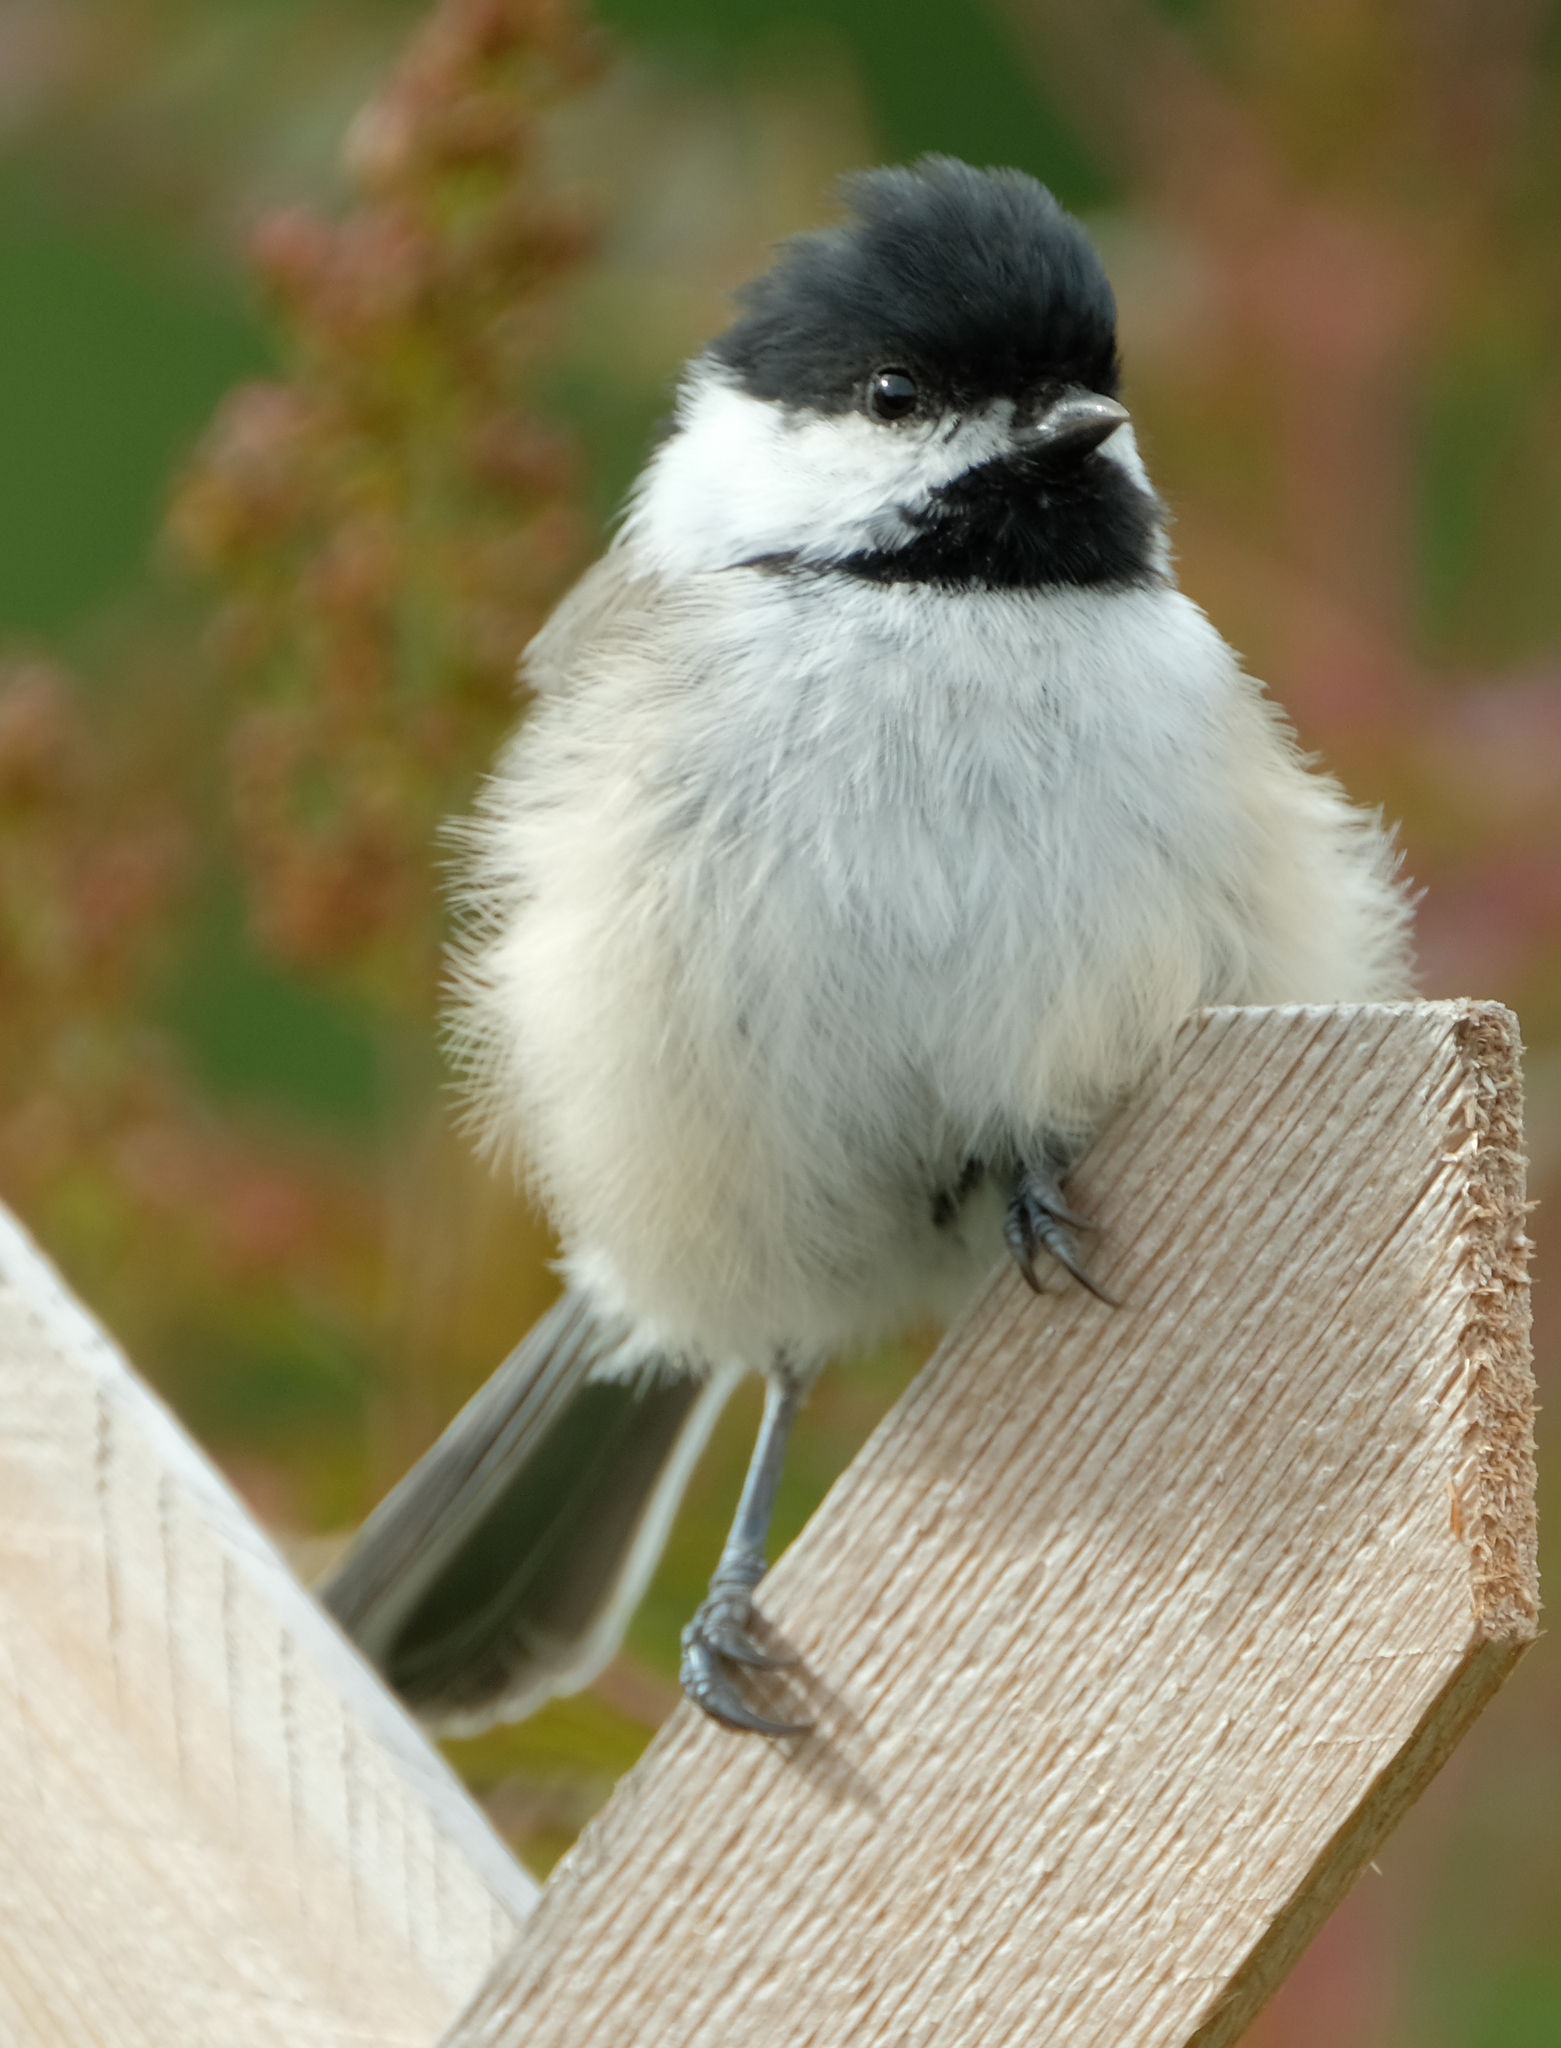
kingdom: Animalia
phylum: Chordata
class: Aves
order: Passeriformes
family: Paridae
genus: Poecile
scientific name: Poecile atricapillus
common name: Black-capped chickadee
